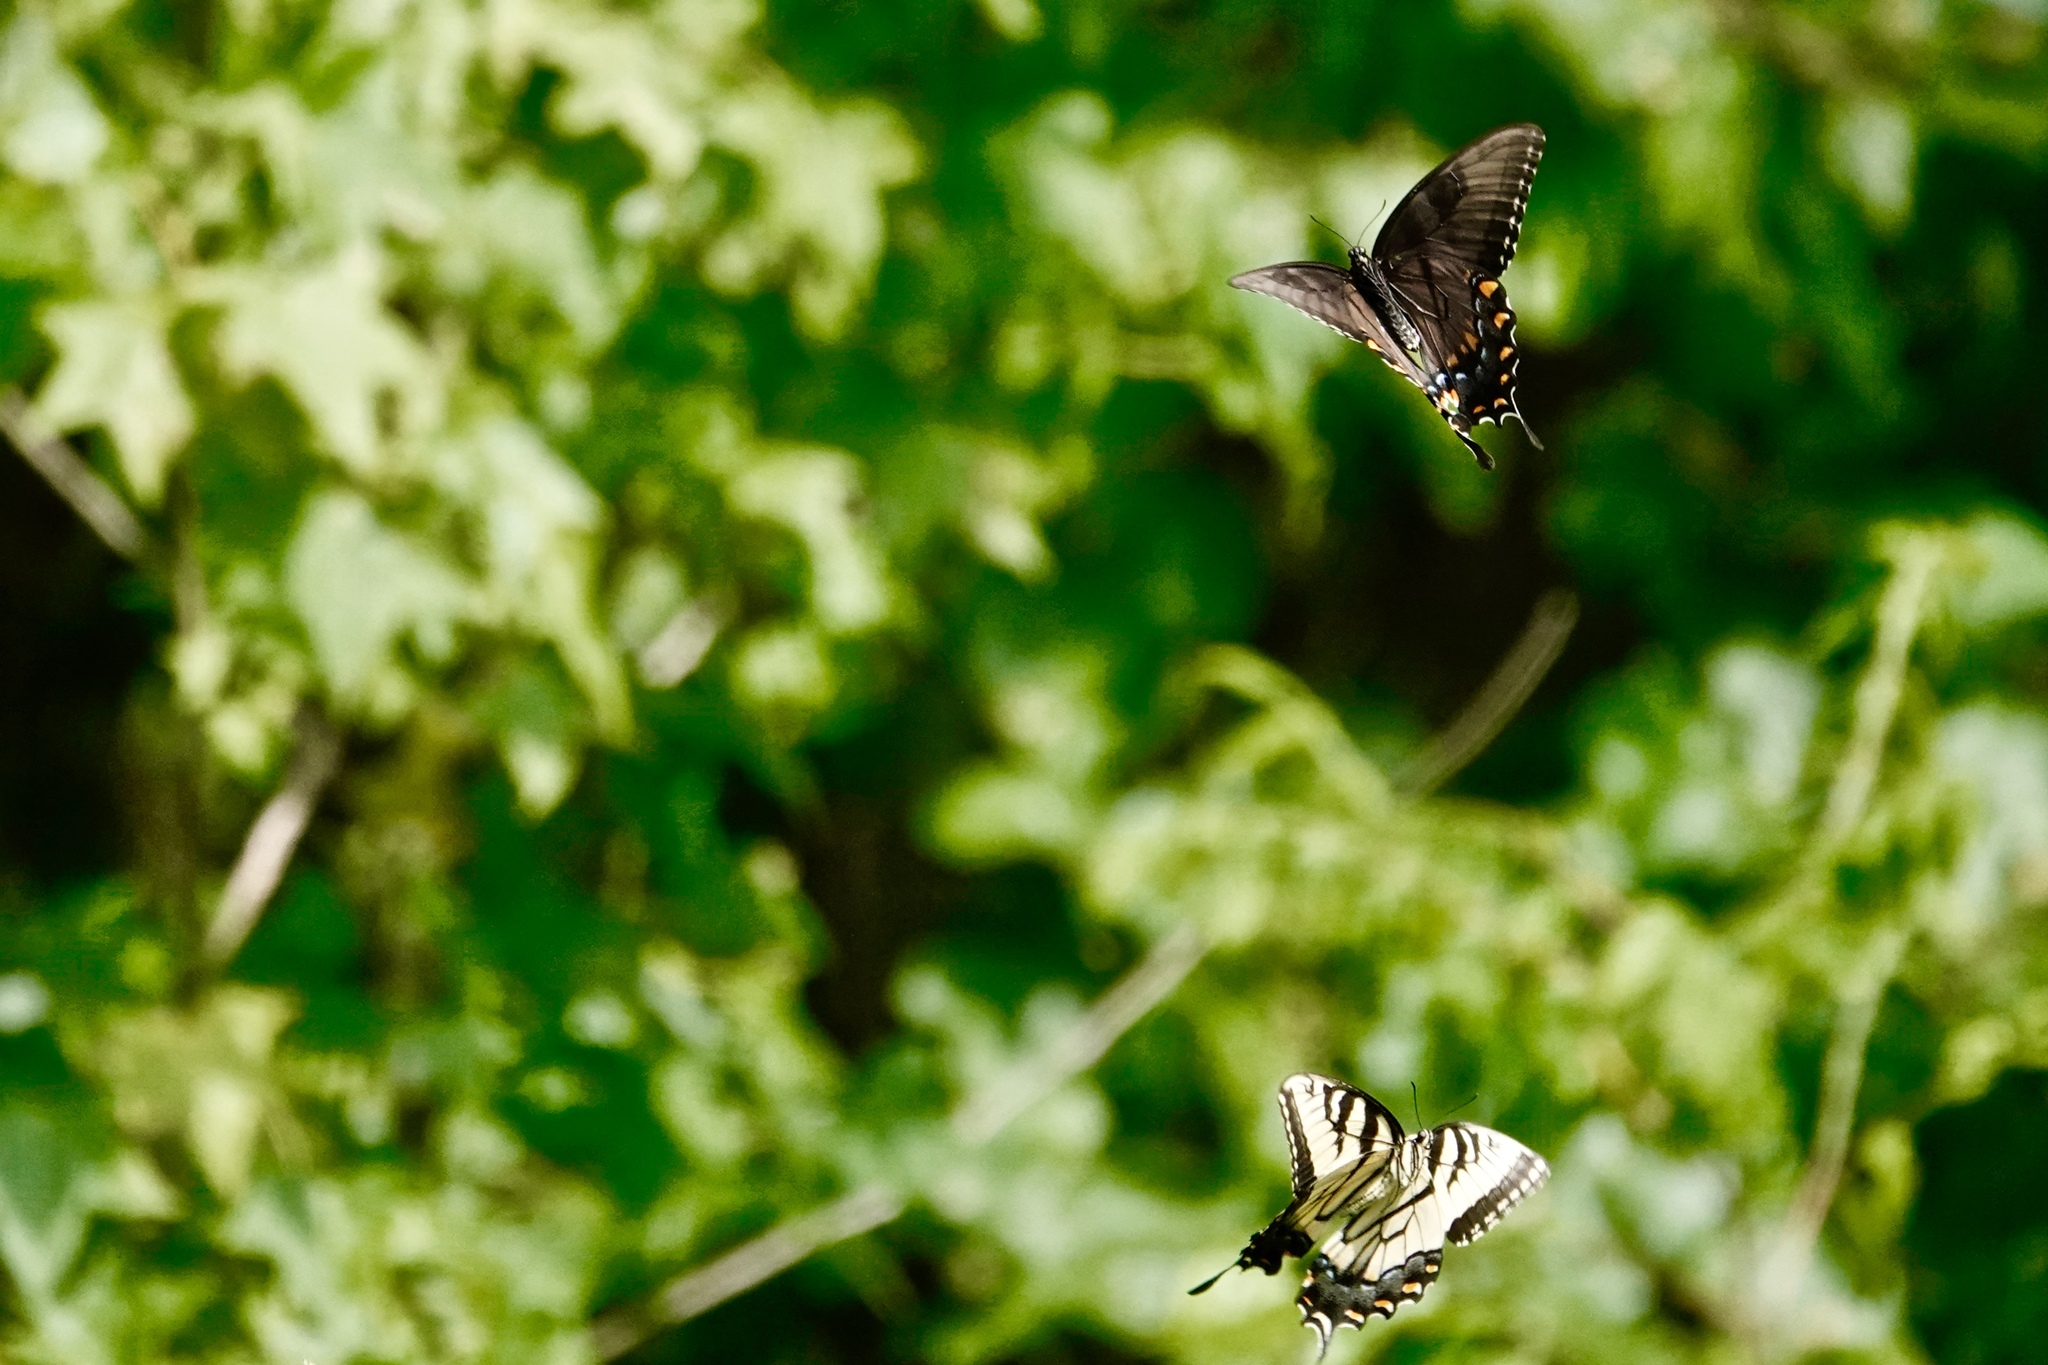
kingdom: Animalia
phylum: Arthropoda
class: Insecta
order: Lepidoptera
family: Papilionidae
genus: Papilio
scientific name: Papilio glaucus
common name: Tiger swallowtail
